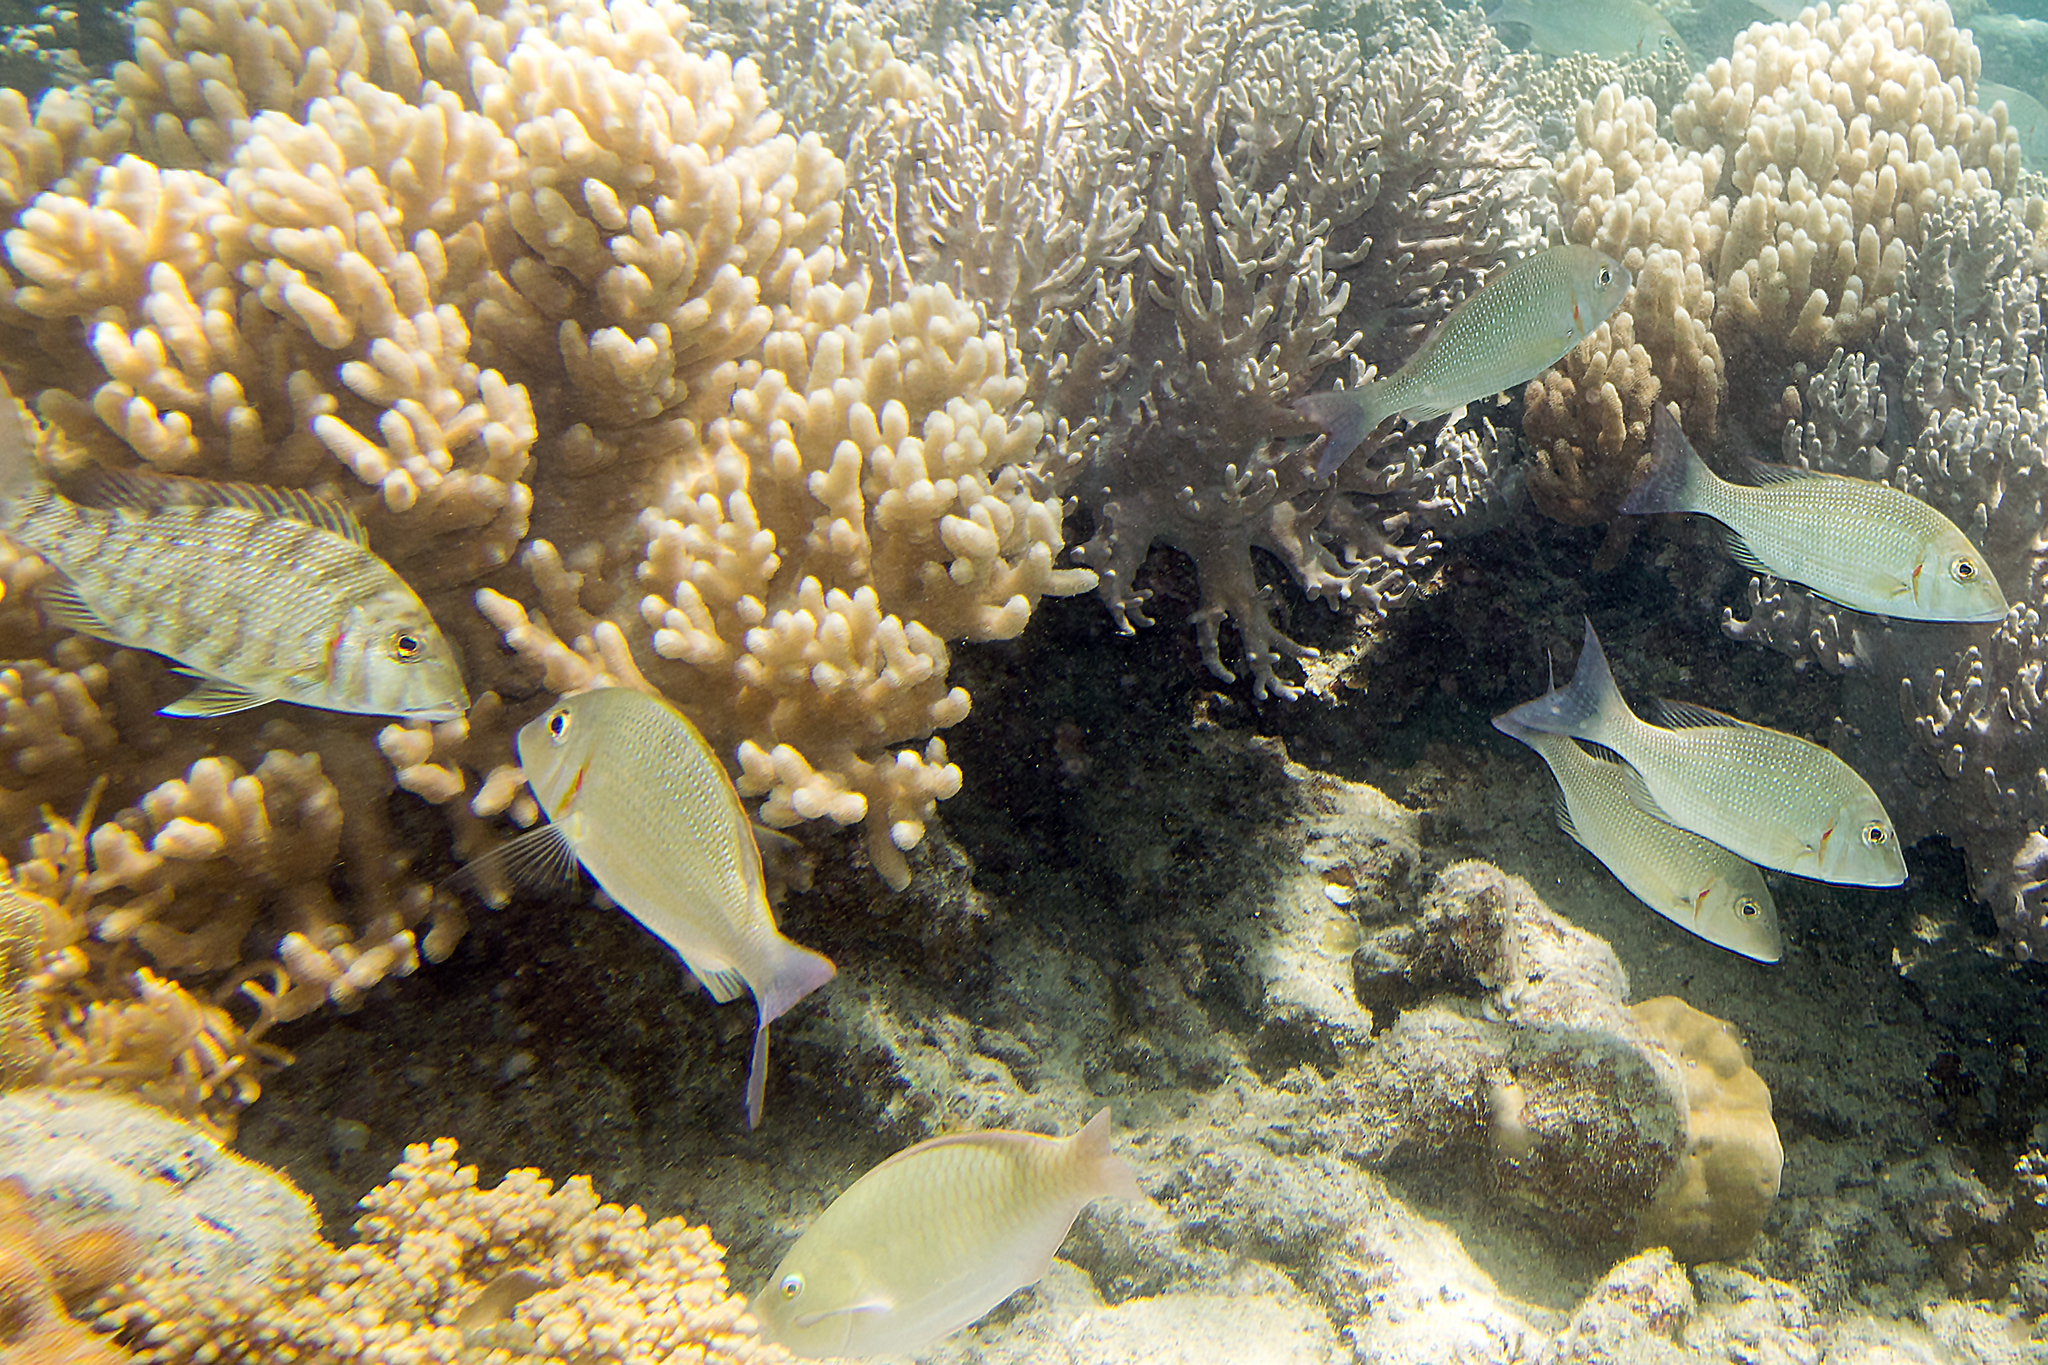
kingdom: Animalia
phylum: Chordata
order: Perciformes
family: Lethrinidae
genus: Lethrinus
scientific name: Lethrinus lentjan
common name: Redspot emperor
